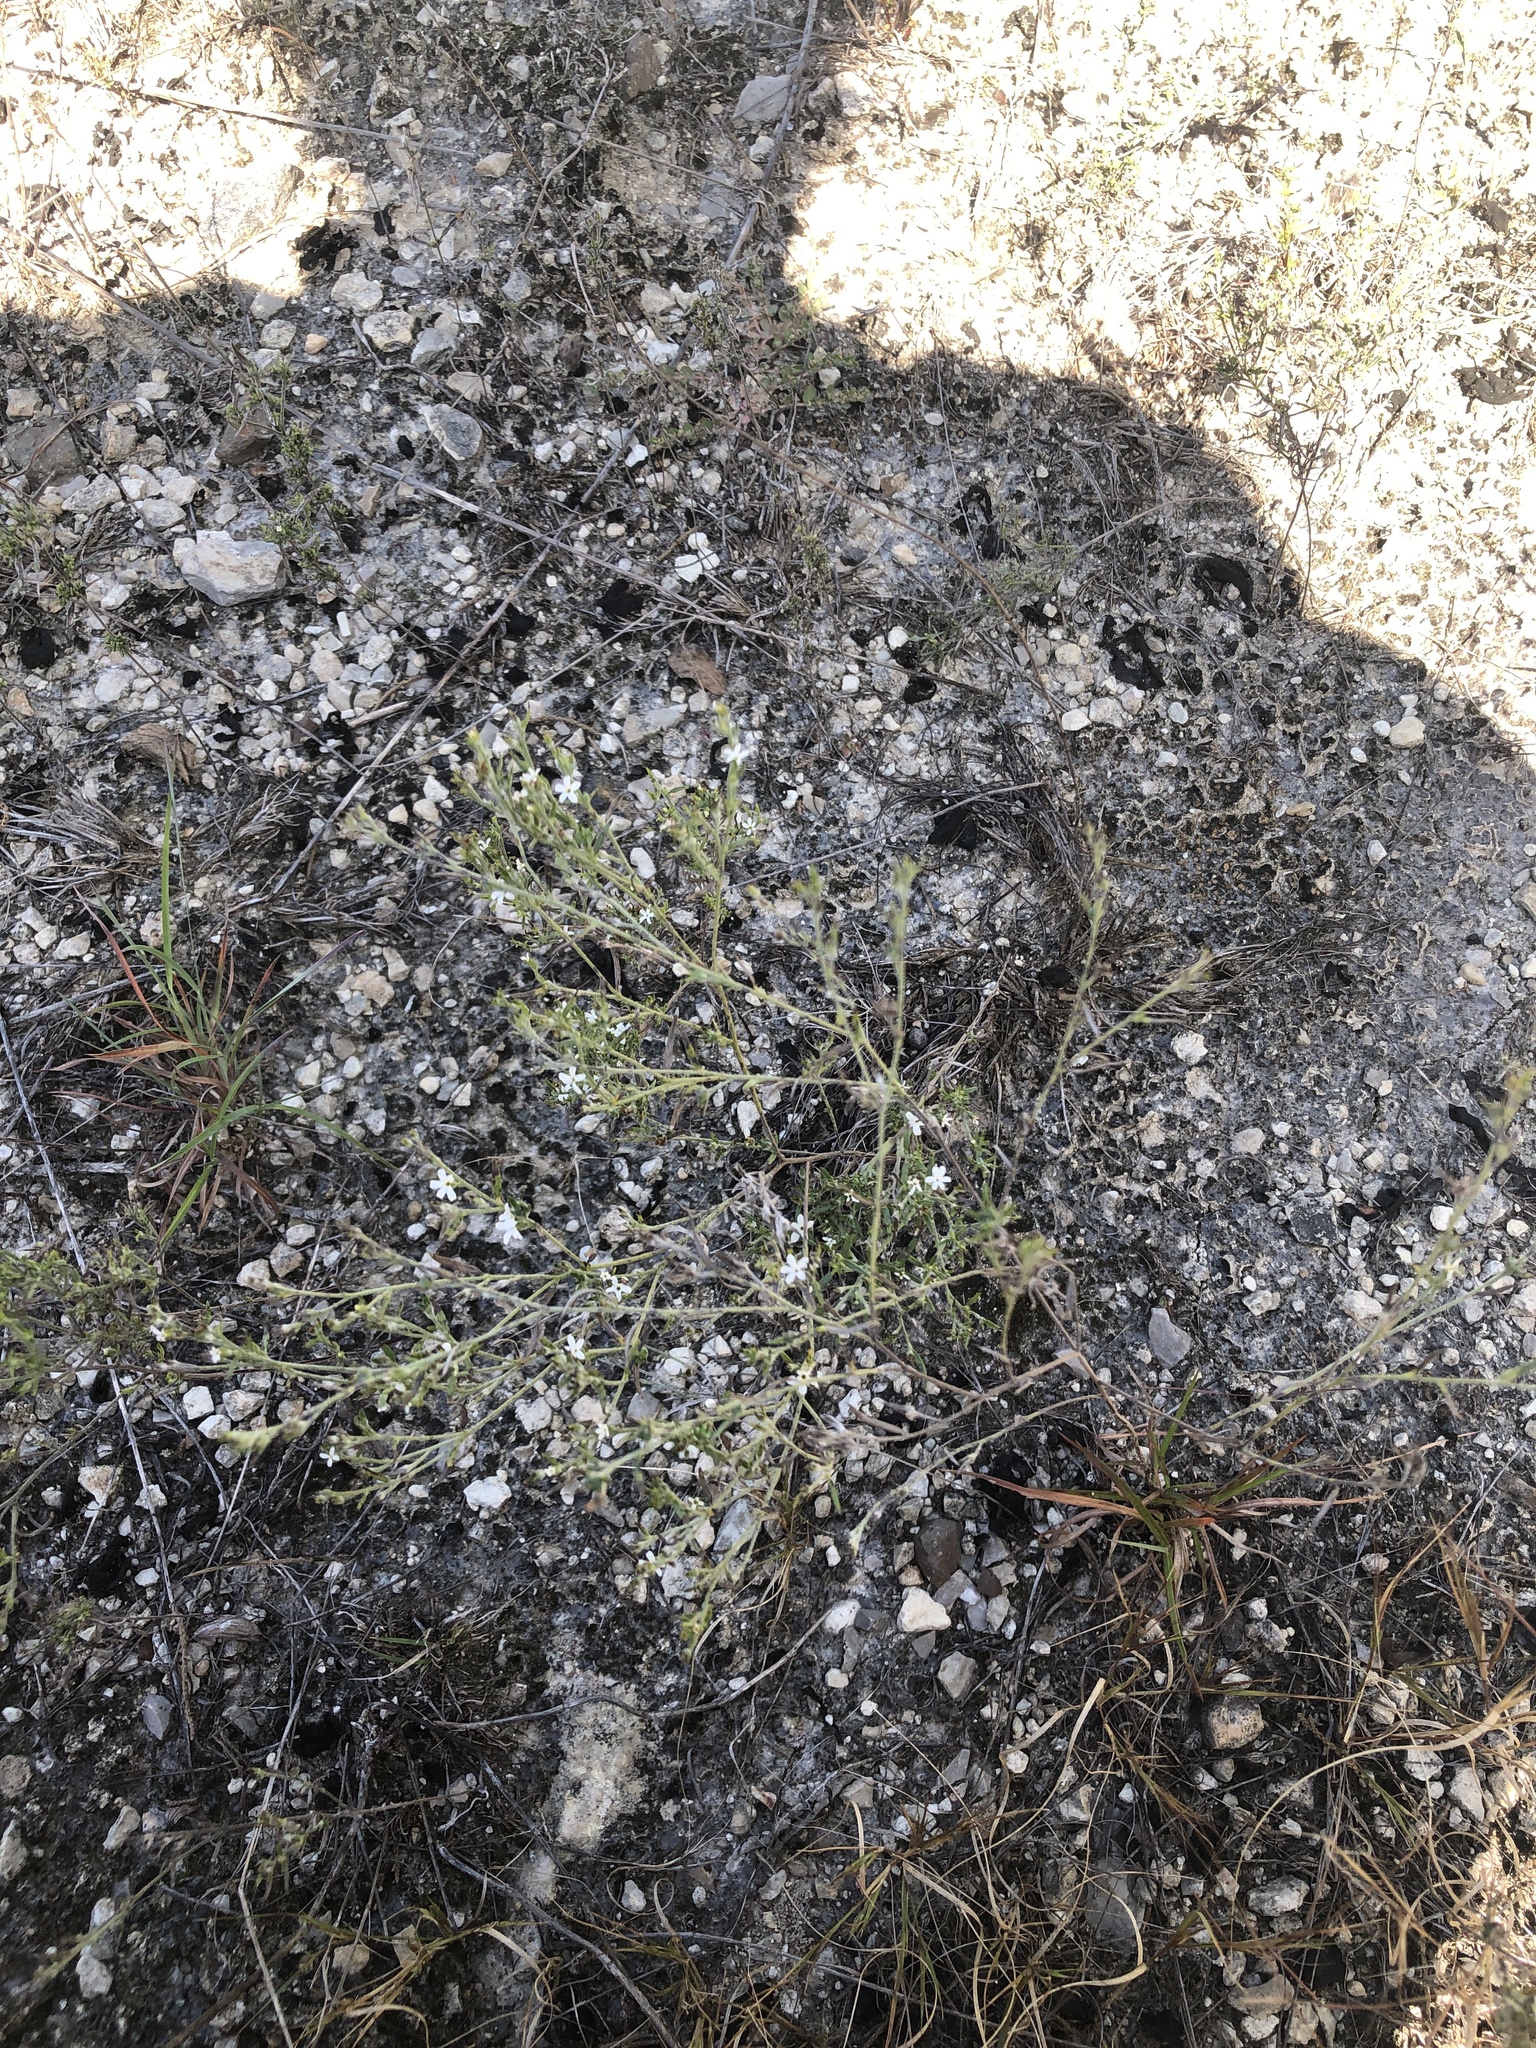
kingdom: Plantae
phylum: Tracheophyta
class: Magnoliopsida
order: Boraginales
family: Heliotropiaceae
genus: Euploca
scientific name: Euploca tenella
